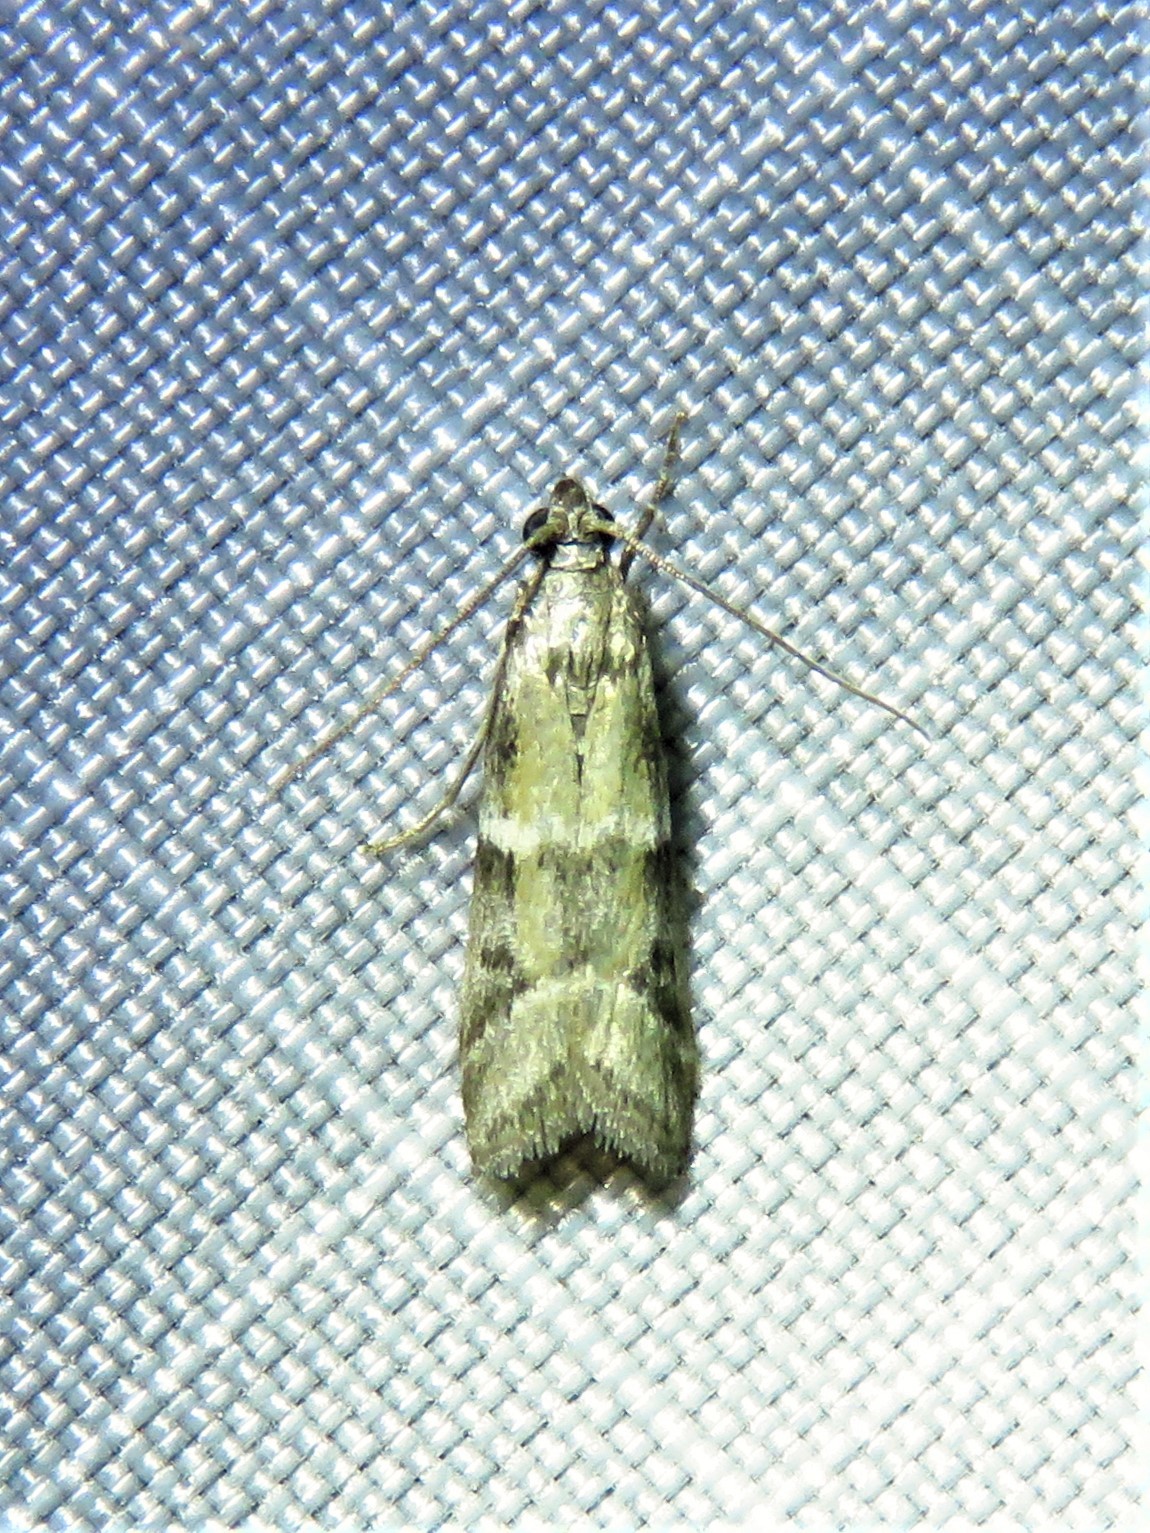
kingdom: Animalia
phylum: Arthropoda
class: Insecta
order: Lepidoptera
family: Pyralidae
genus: Ephestiodes
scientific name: Ephestiodes mignonella
